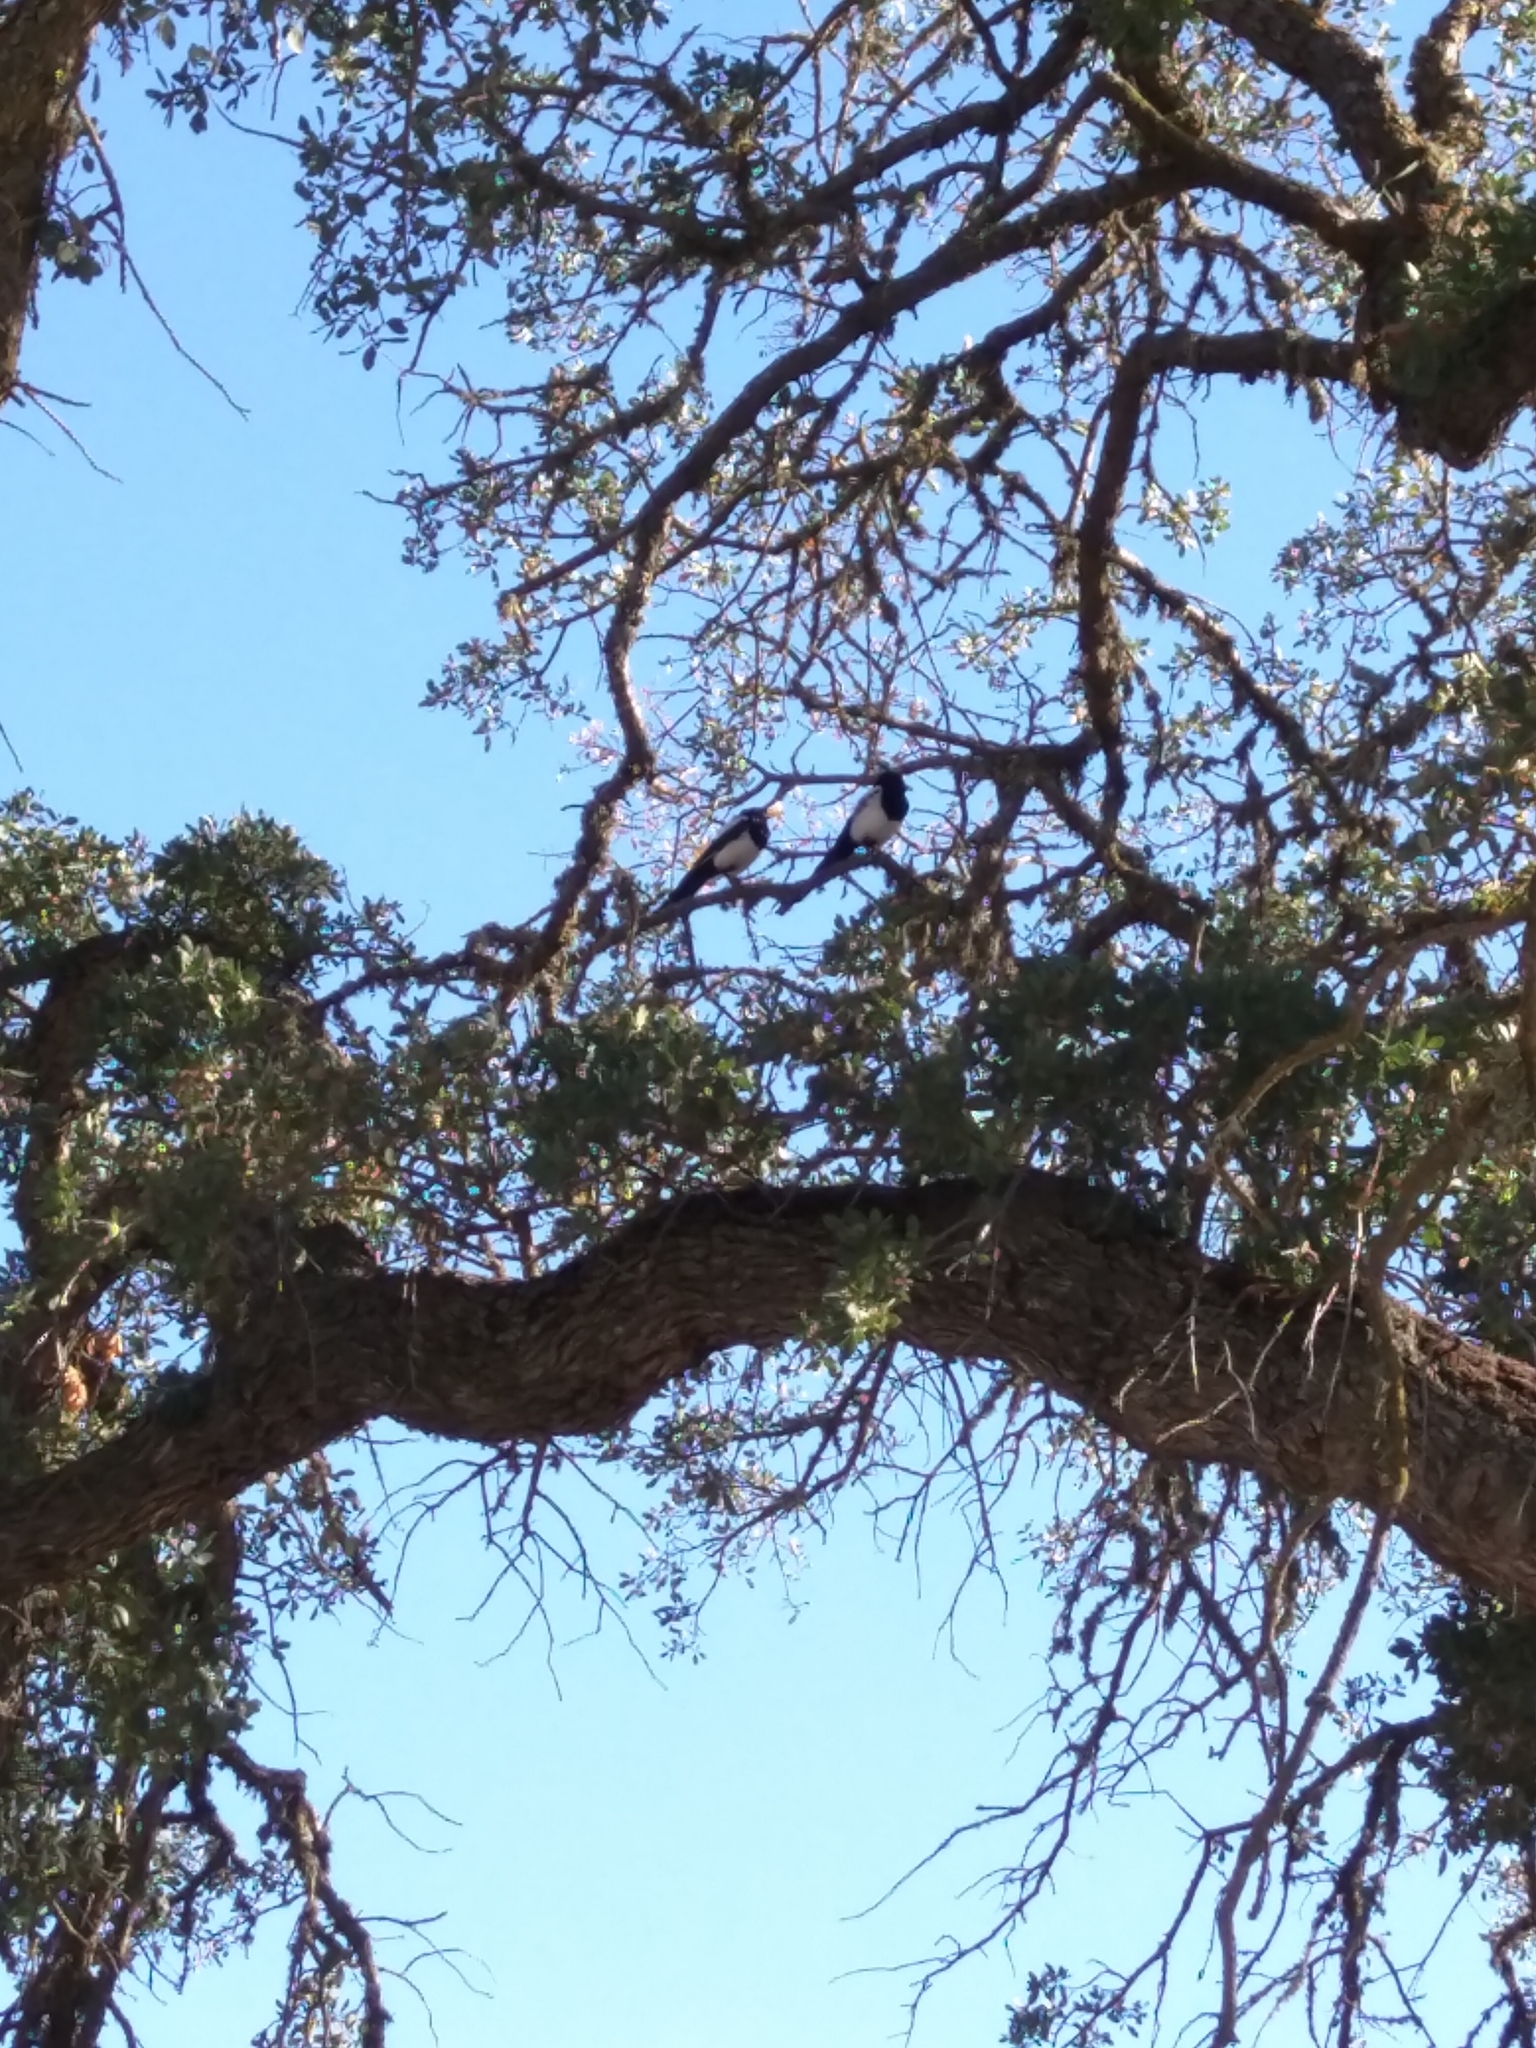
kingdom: Animalia
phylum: Chordata
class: Aves
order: Passeriformes
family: Corvidae
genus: Pica
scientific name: Pica nuttalli
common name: Yellow-billed magpie
